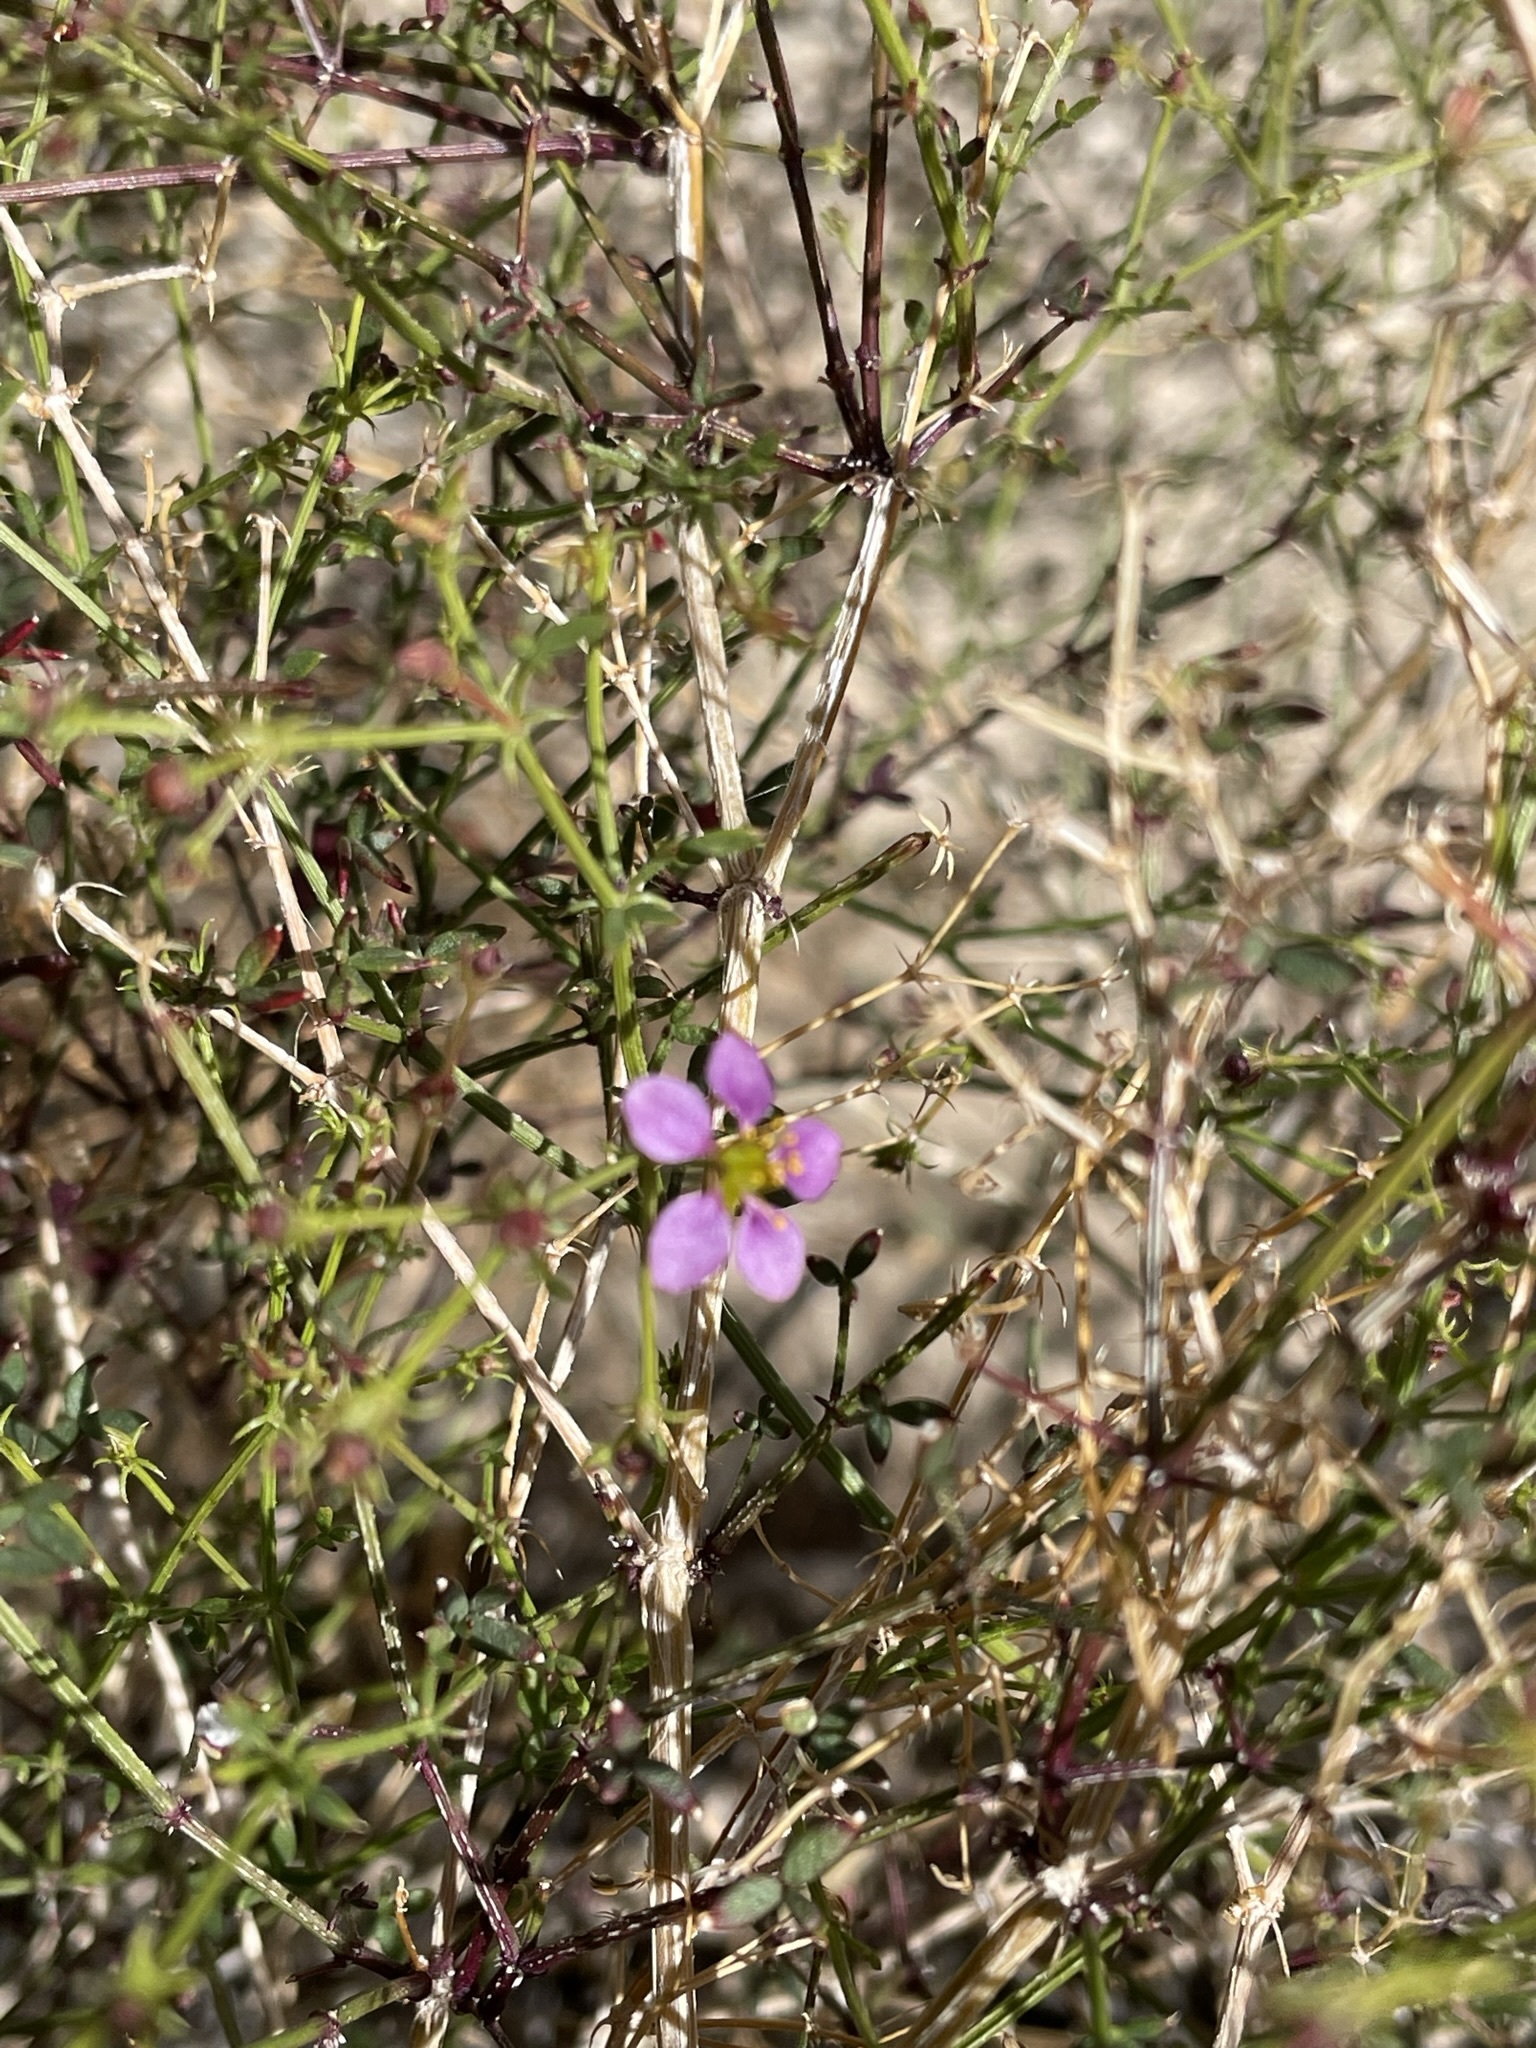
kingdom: Plantae
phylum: Tracheophyta
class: Magnoliopsida
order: Zygophyllales
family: Zygophyllaceae
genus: Fagonia
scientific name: Fagonia laevis
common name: California fagonbush
